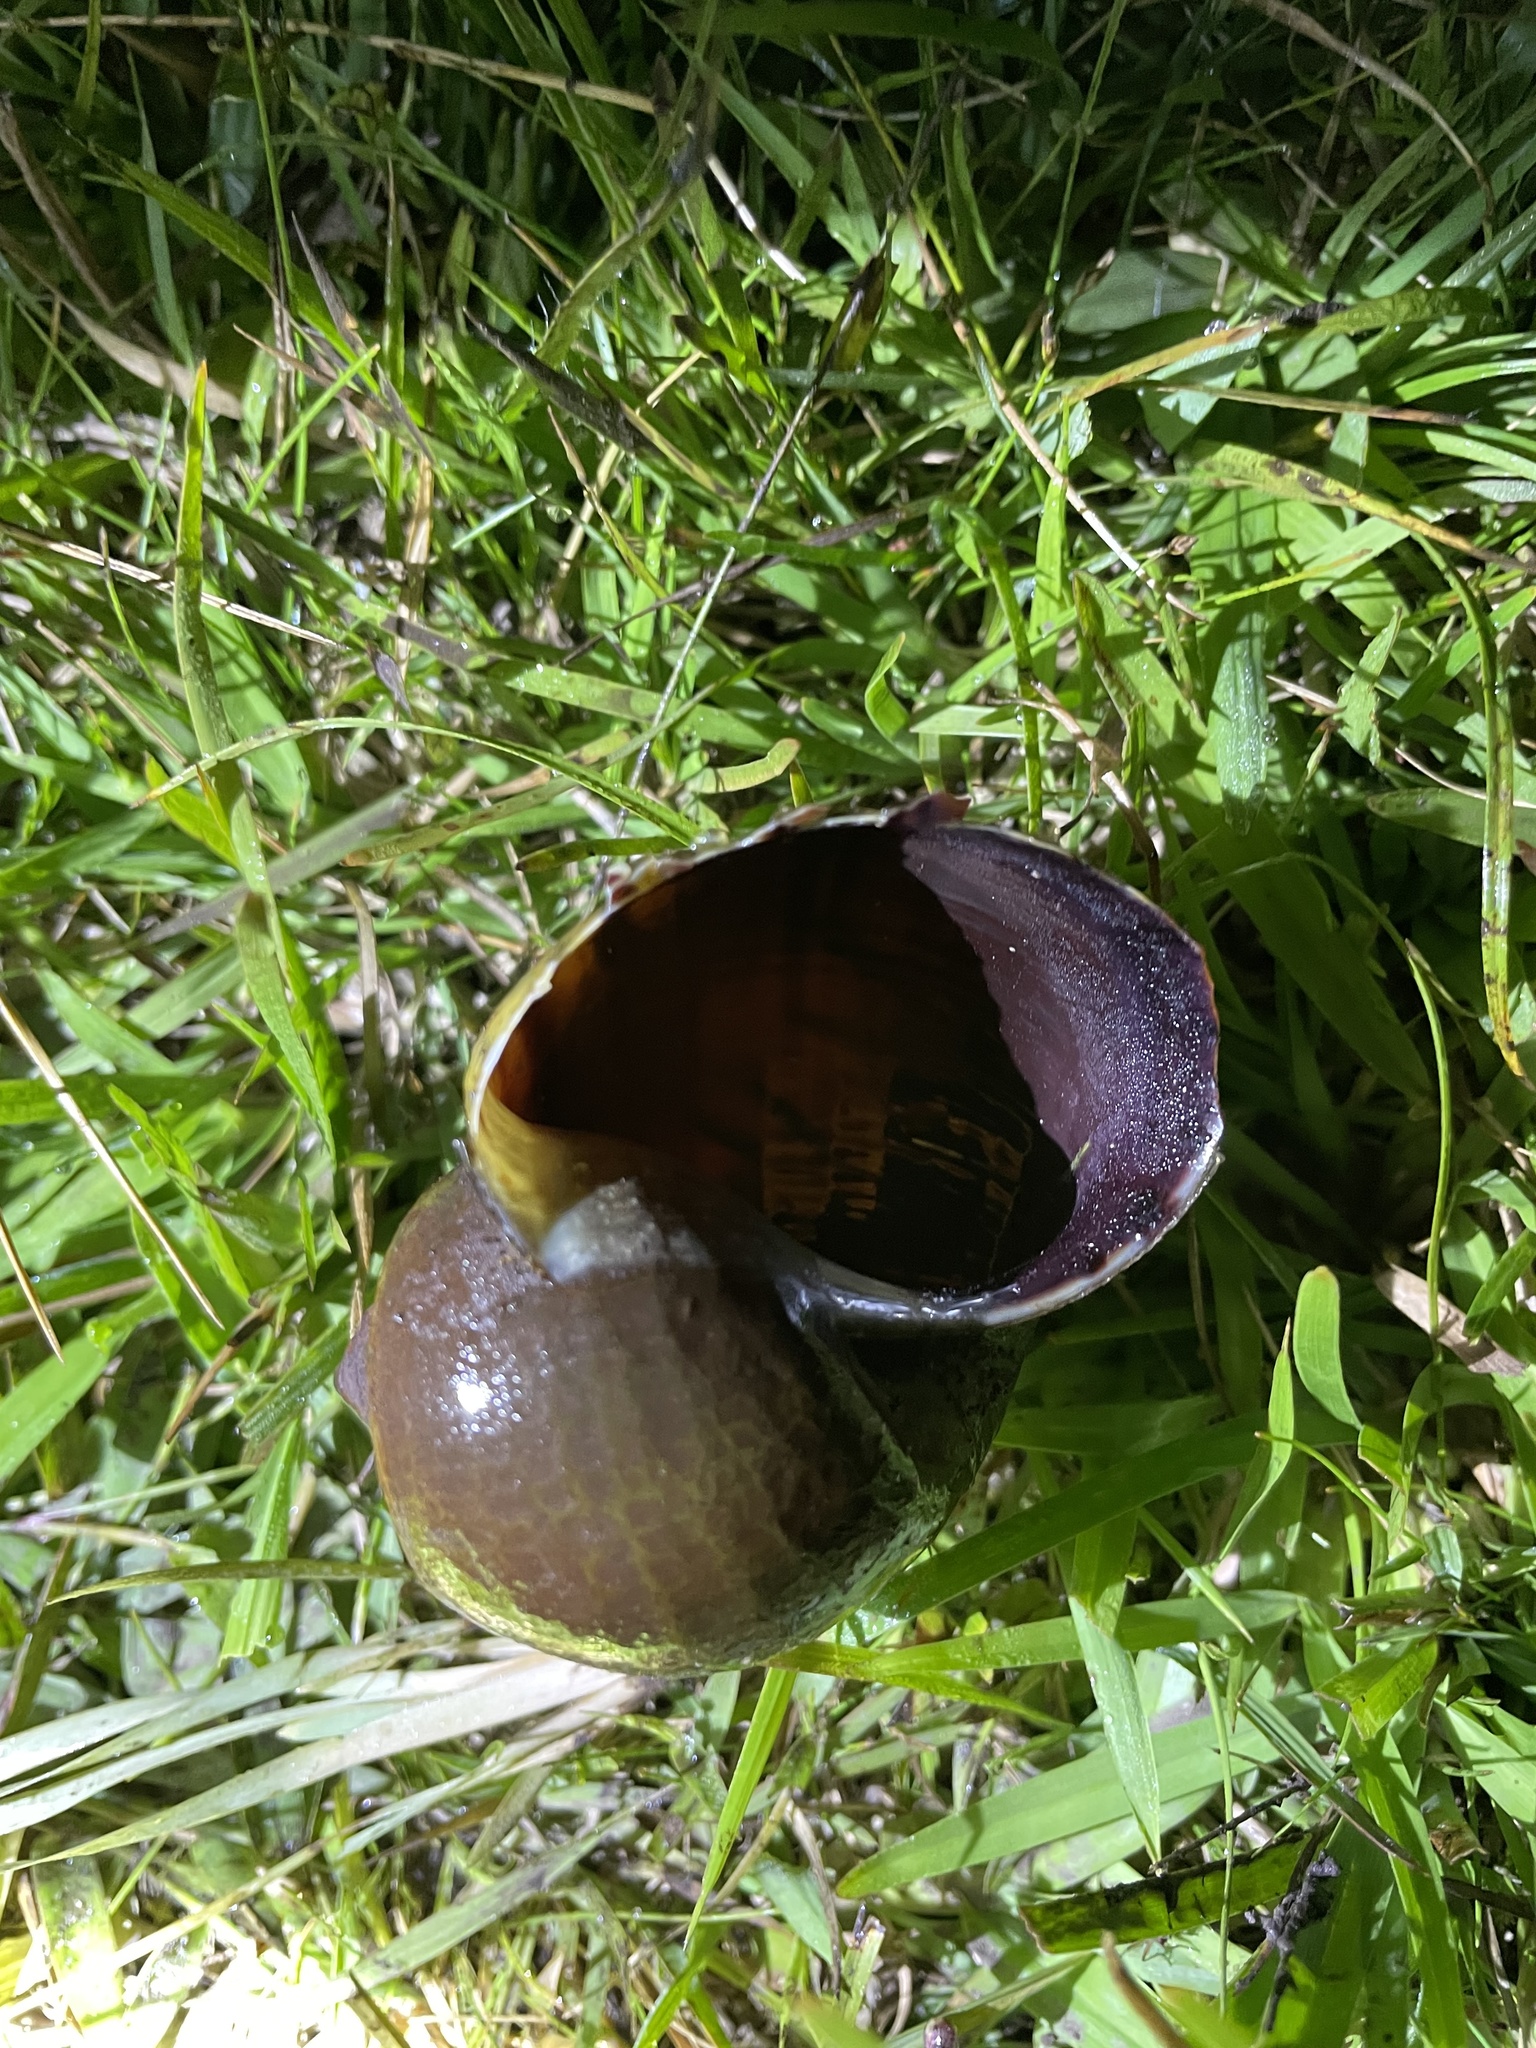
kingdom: Animalia
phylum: Mollusca
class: Gastropoda
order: Architaenioglossa
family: Ampullariidae
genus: Pomacea
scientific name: Pomacea canaliculata
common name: Channeled applesnail
